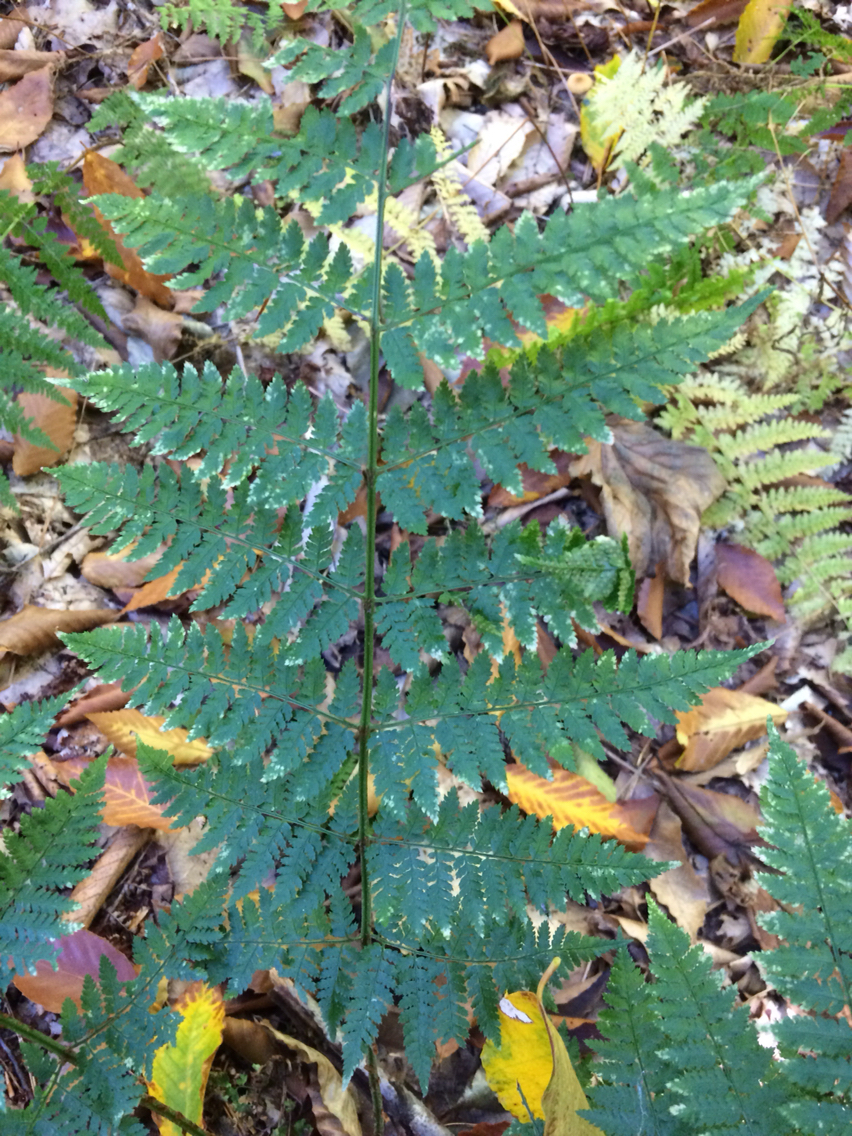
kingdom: Plantae
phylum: Tracheophyta
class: Polypodiopsida
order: Polypodiales
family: Dryopteridaceae
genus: Dryopteris
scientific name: Dryopteris carthusiana
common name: Narrow buckler-fern
